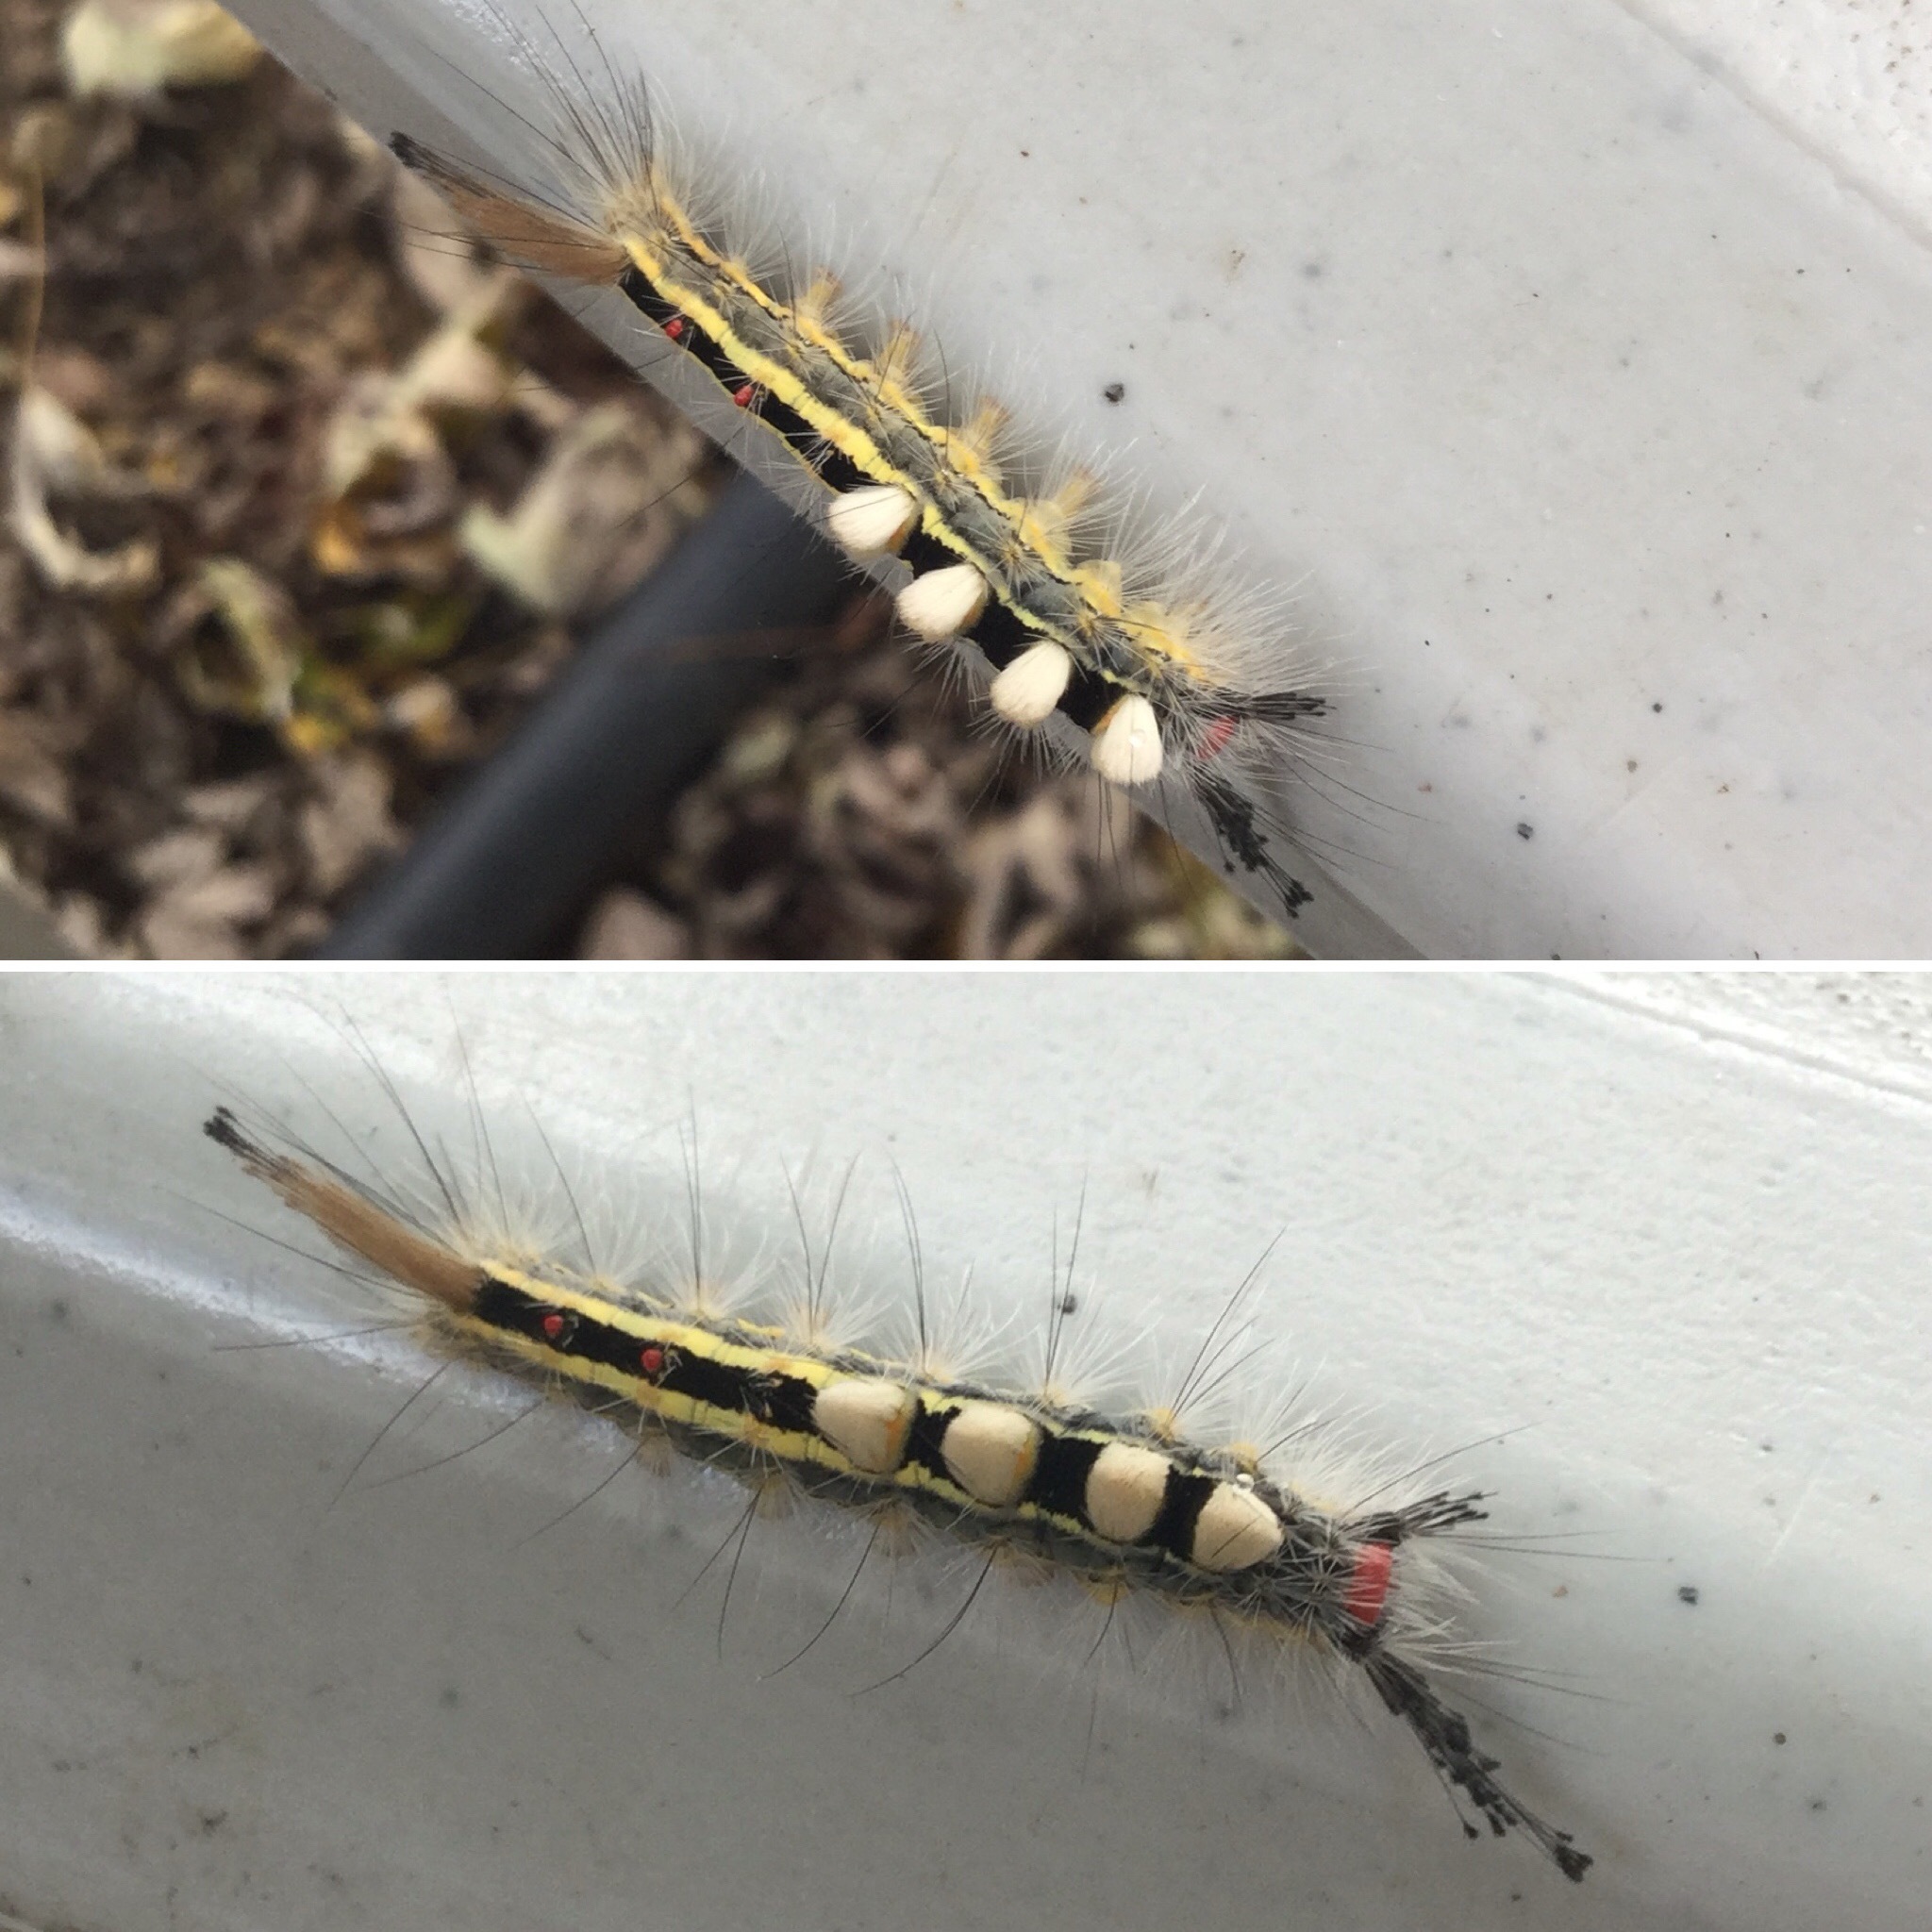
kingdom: Animalia
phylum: Arthropoda
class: Insecta
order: Lepidoptera
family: Erebidae
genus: Orgyia
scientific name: Orgyia leucostigma
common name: White-marked tussock moth
